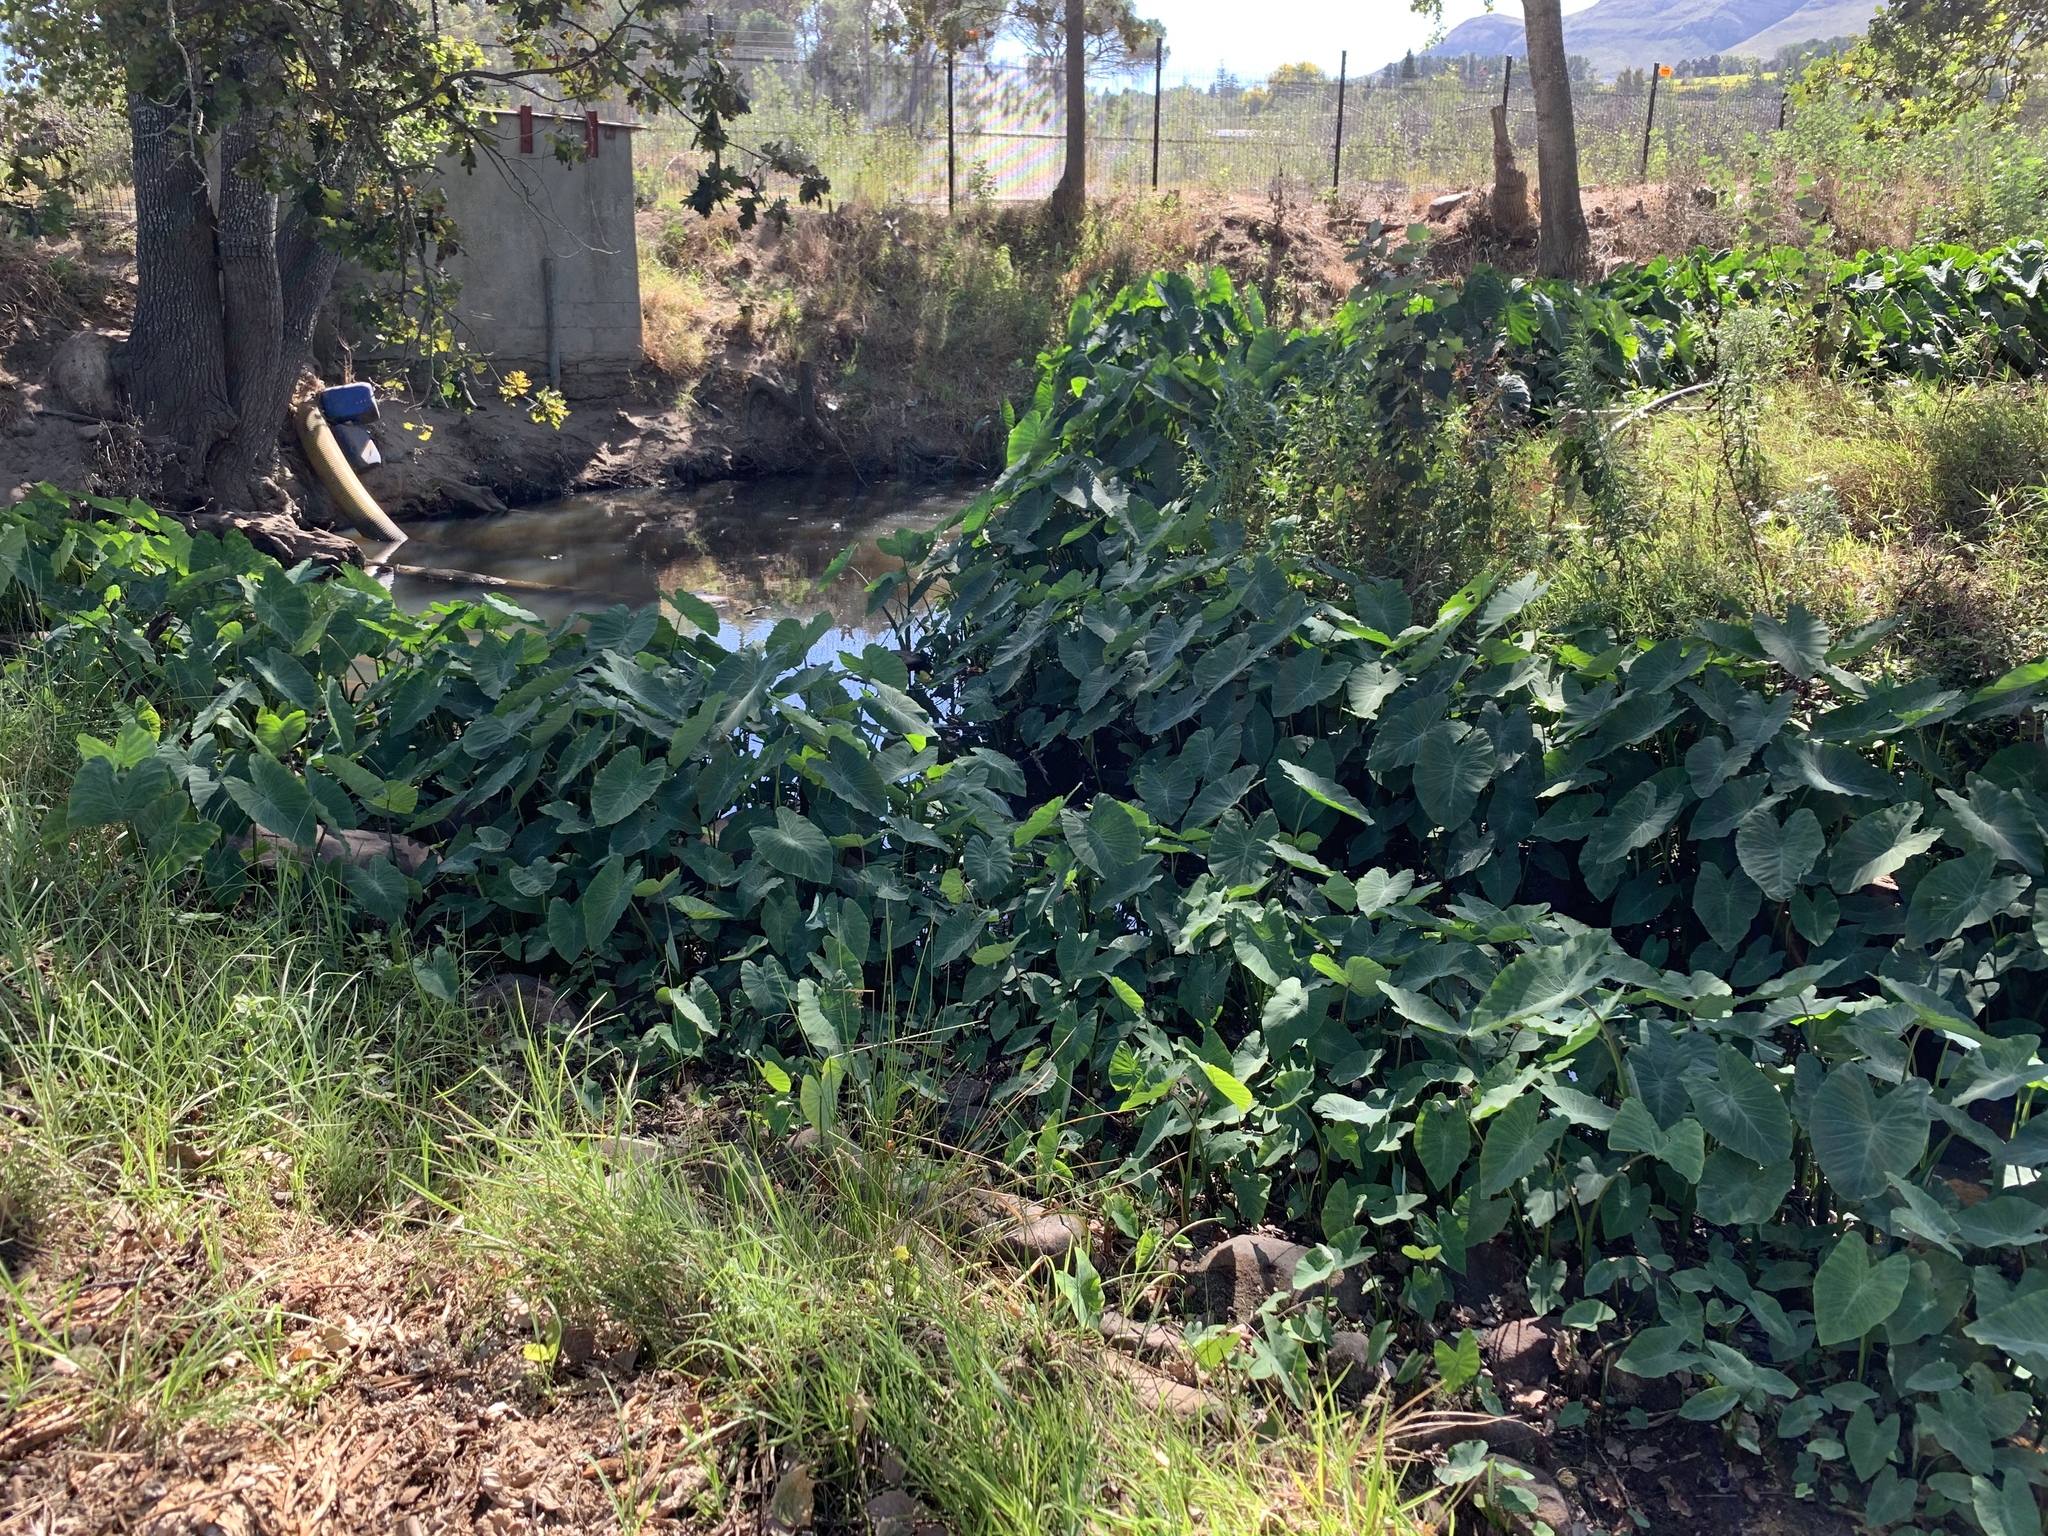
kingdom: Plantae
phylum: Tracheophyta
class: Liliopsida
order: Alismatales
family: Araceae
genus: Colocasia
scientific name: Colocasia esculenta
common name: Taro
